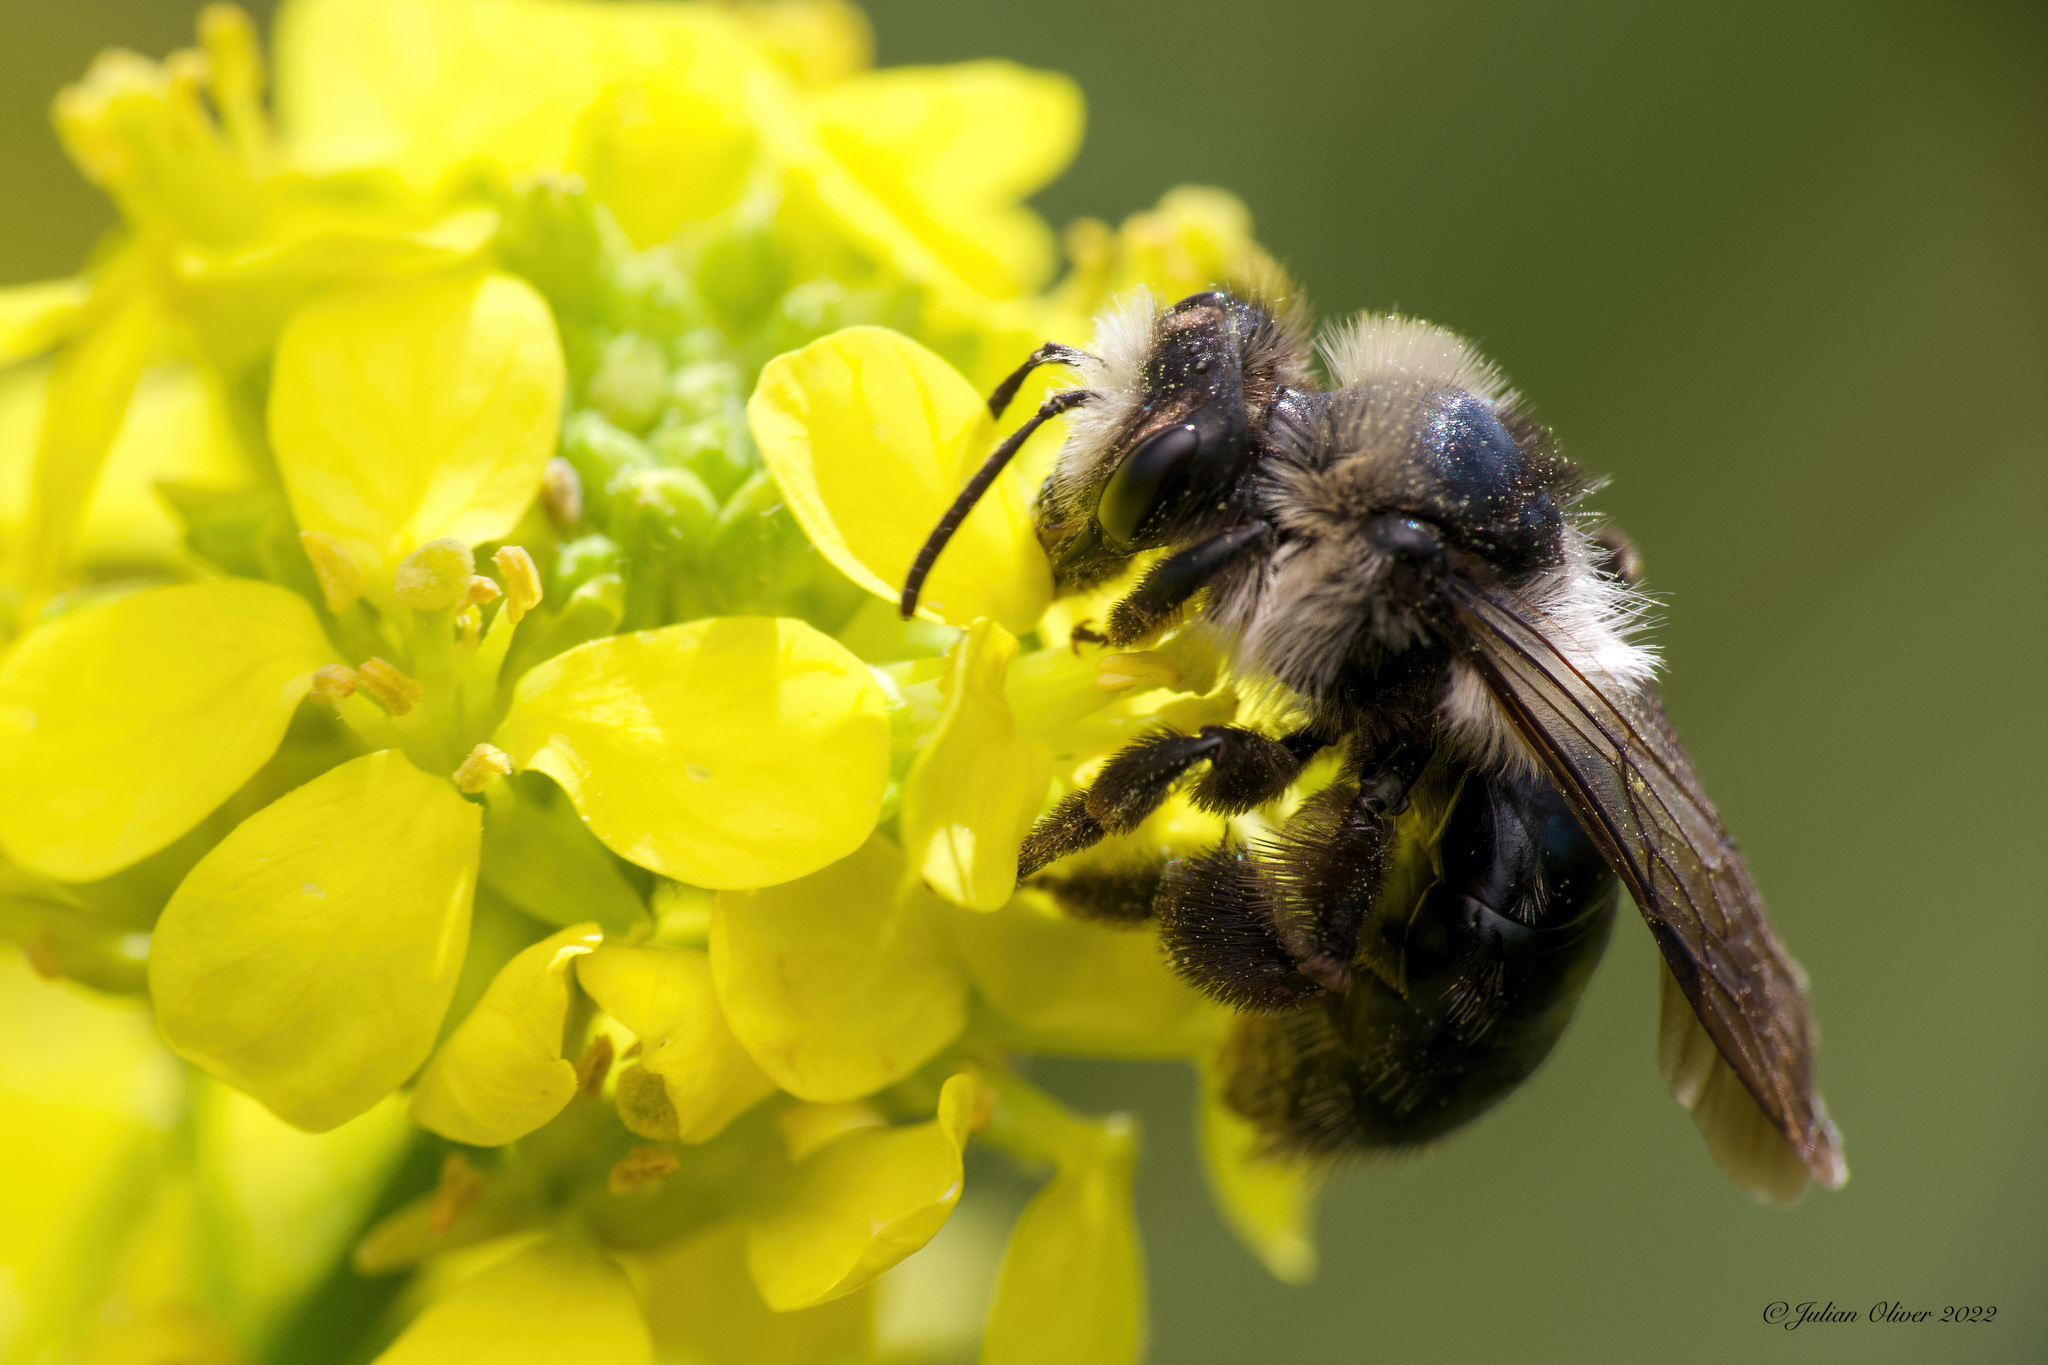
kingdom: Animalia
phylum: Arthropoda
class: Insecta
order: Hymenoptera
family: Andrenidae
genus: Andrena
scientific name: Andrena cineraria
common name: Ashy mining bee
